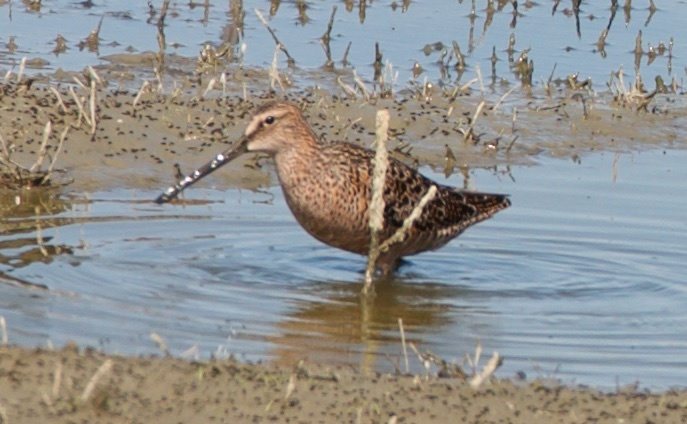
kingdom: Animalia
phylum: Chordata
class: Aves
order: Charadriiformes
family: Scolopacidae
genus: Limnodromus
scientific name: Limnodromus scolopaceus
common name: Long-billed dowitcher
